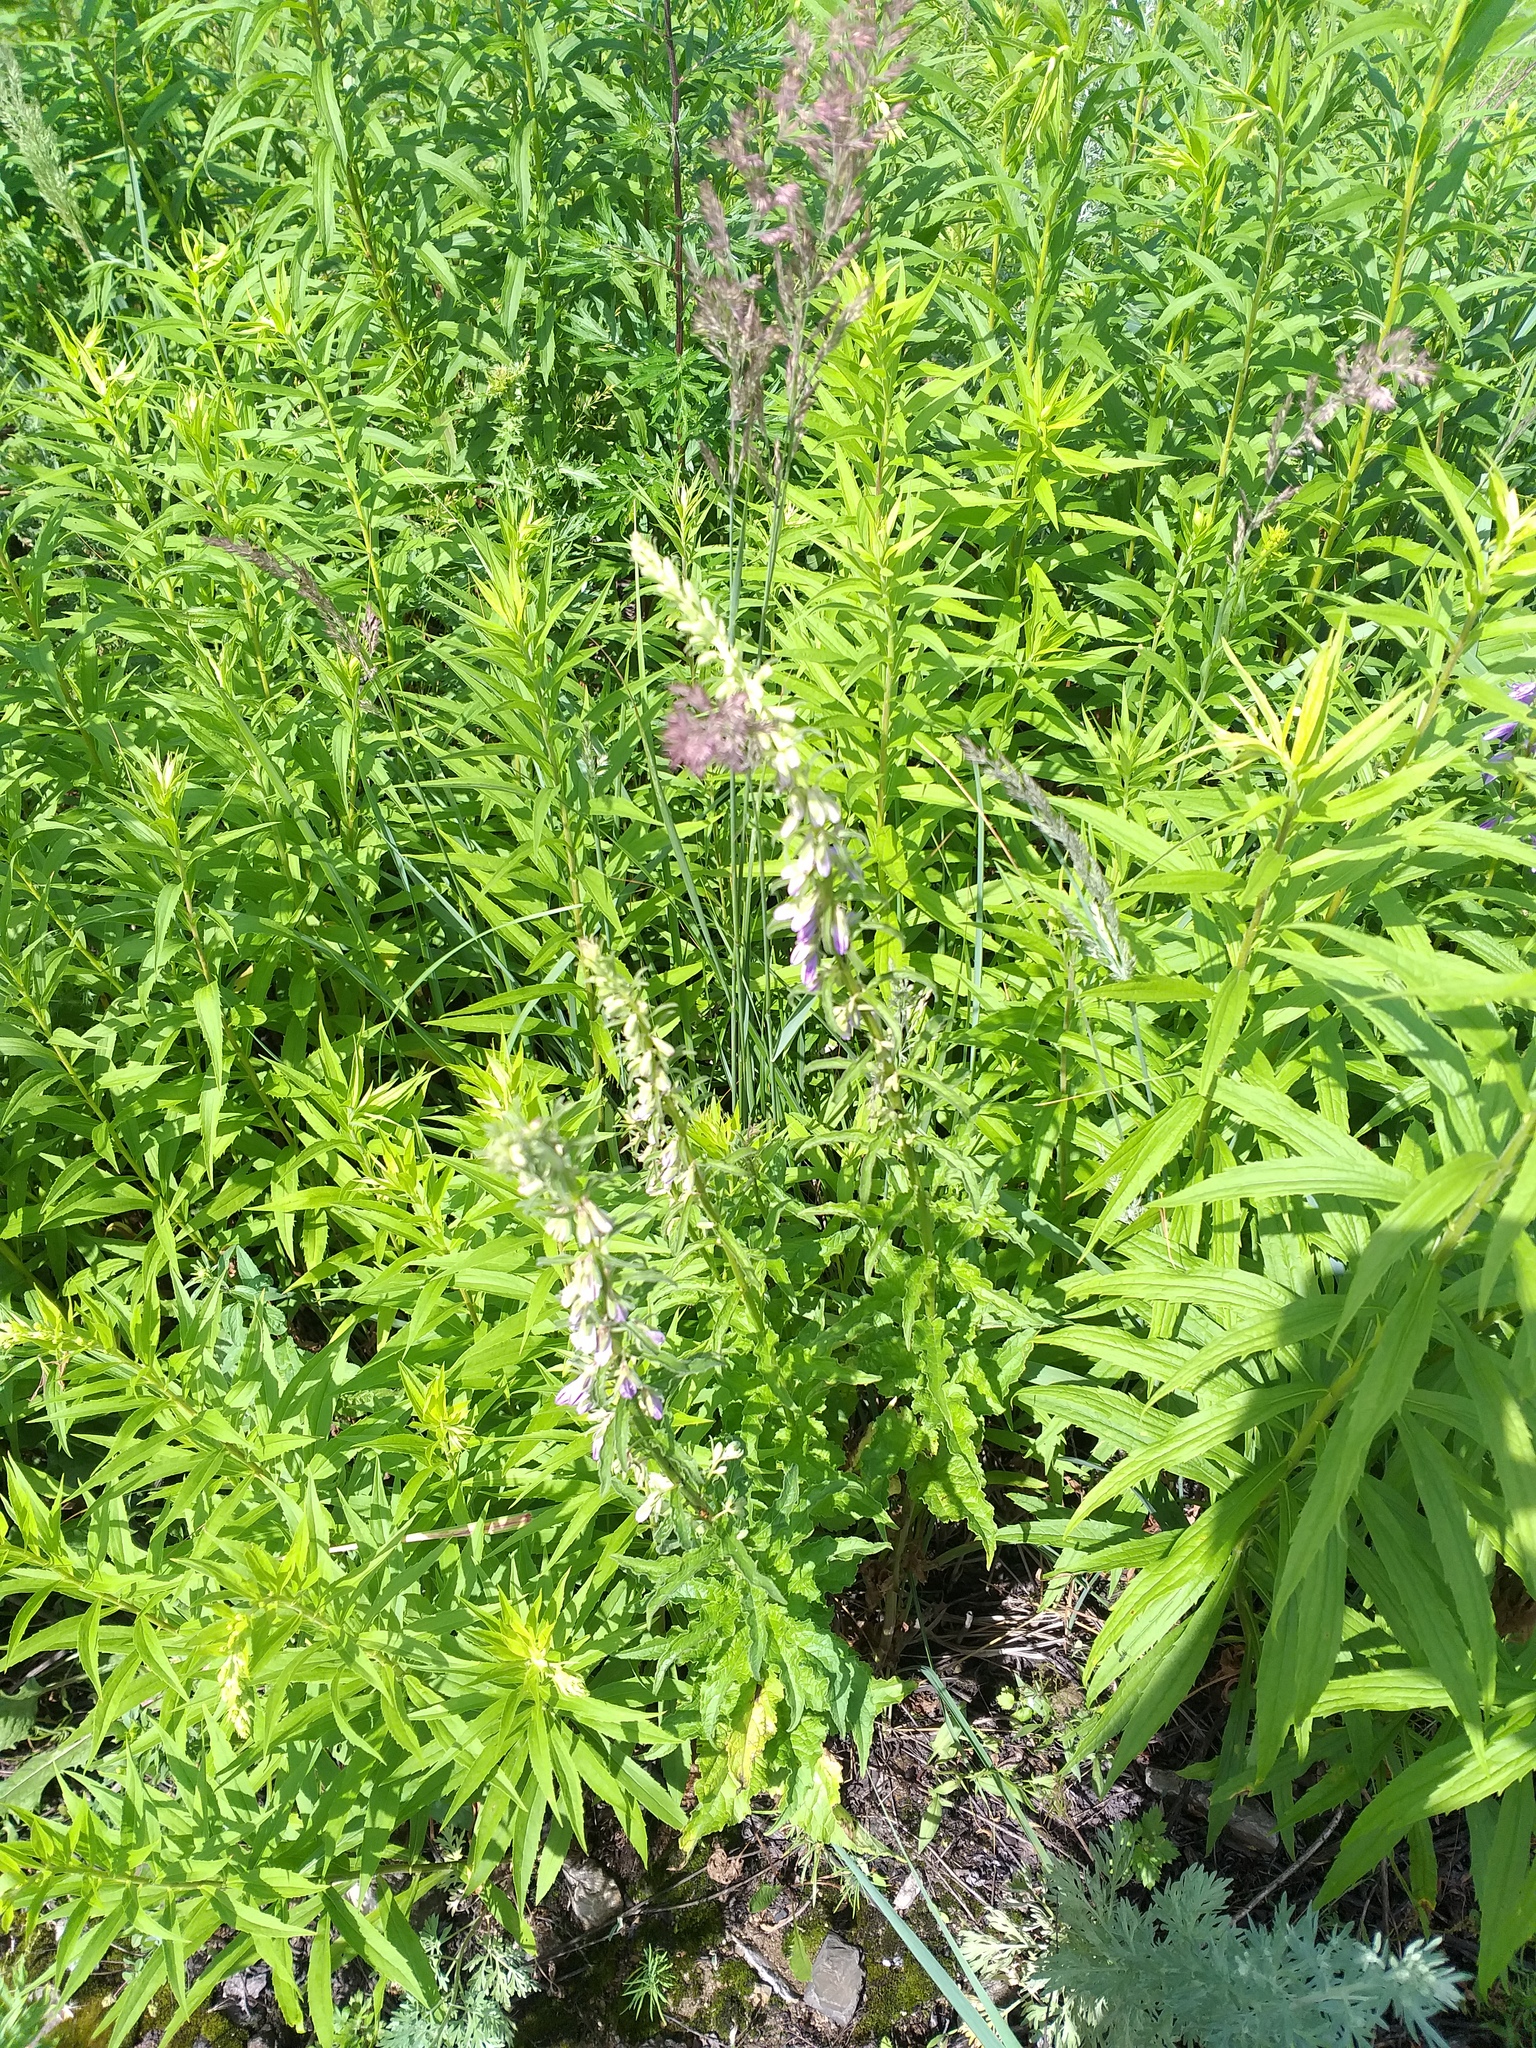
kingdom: Plantae
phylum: Tracheophyta
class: Magnoliopsida
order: Asterales
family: Campanulaceae
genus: Campanula
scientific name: Campanula rapunculoides
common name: Creeping bellflower
